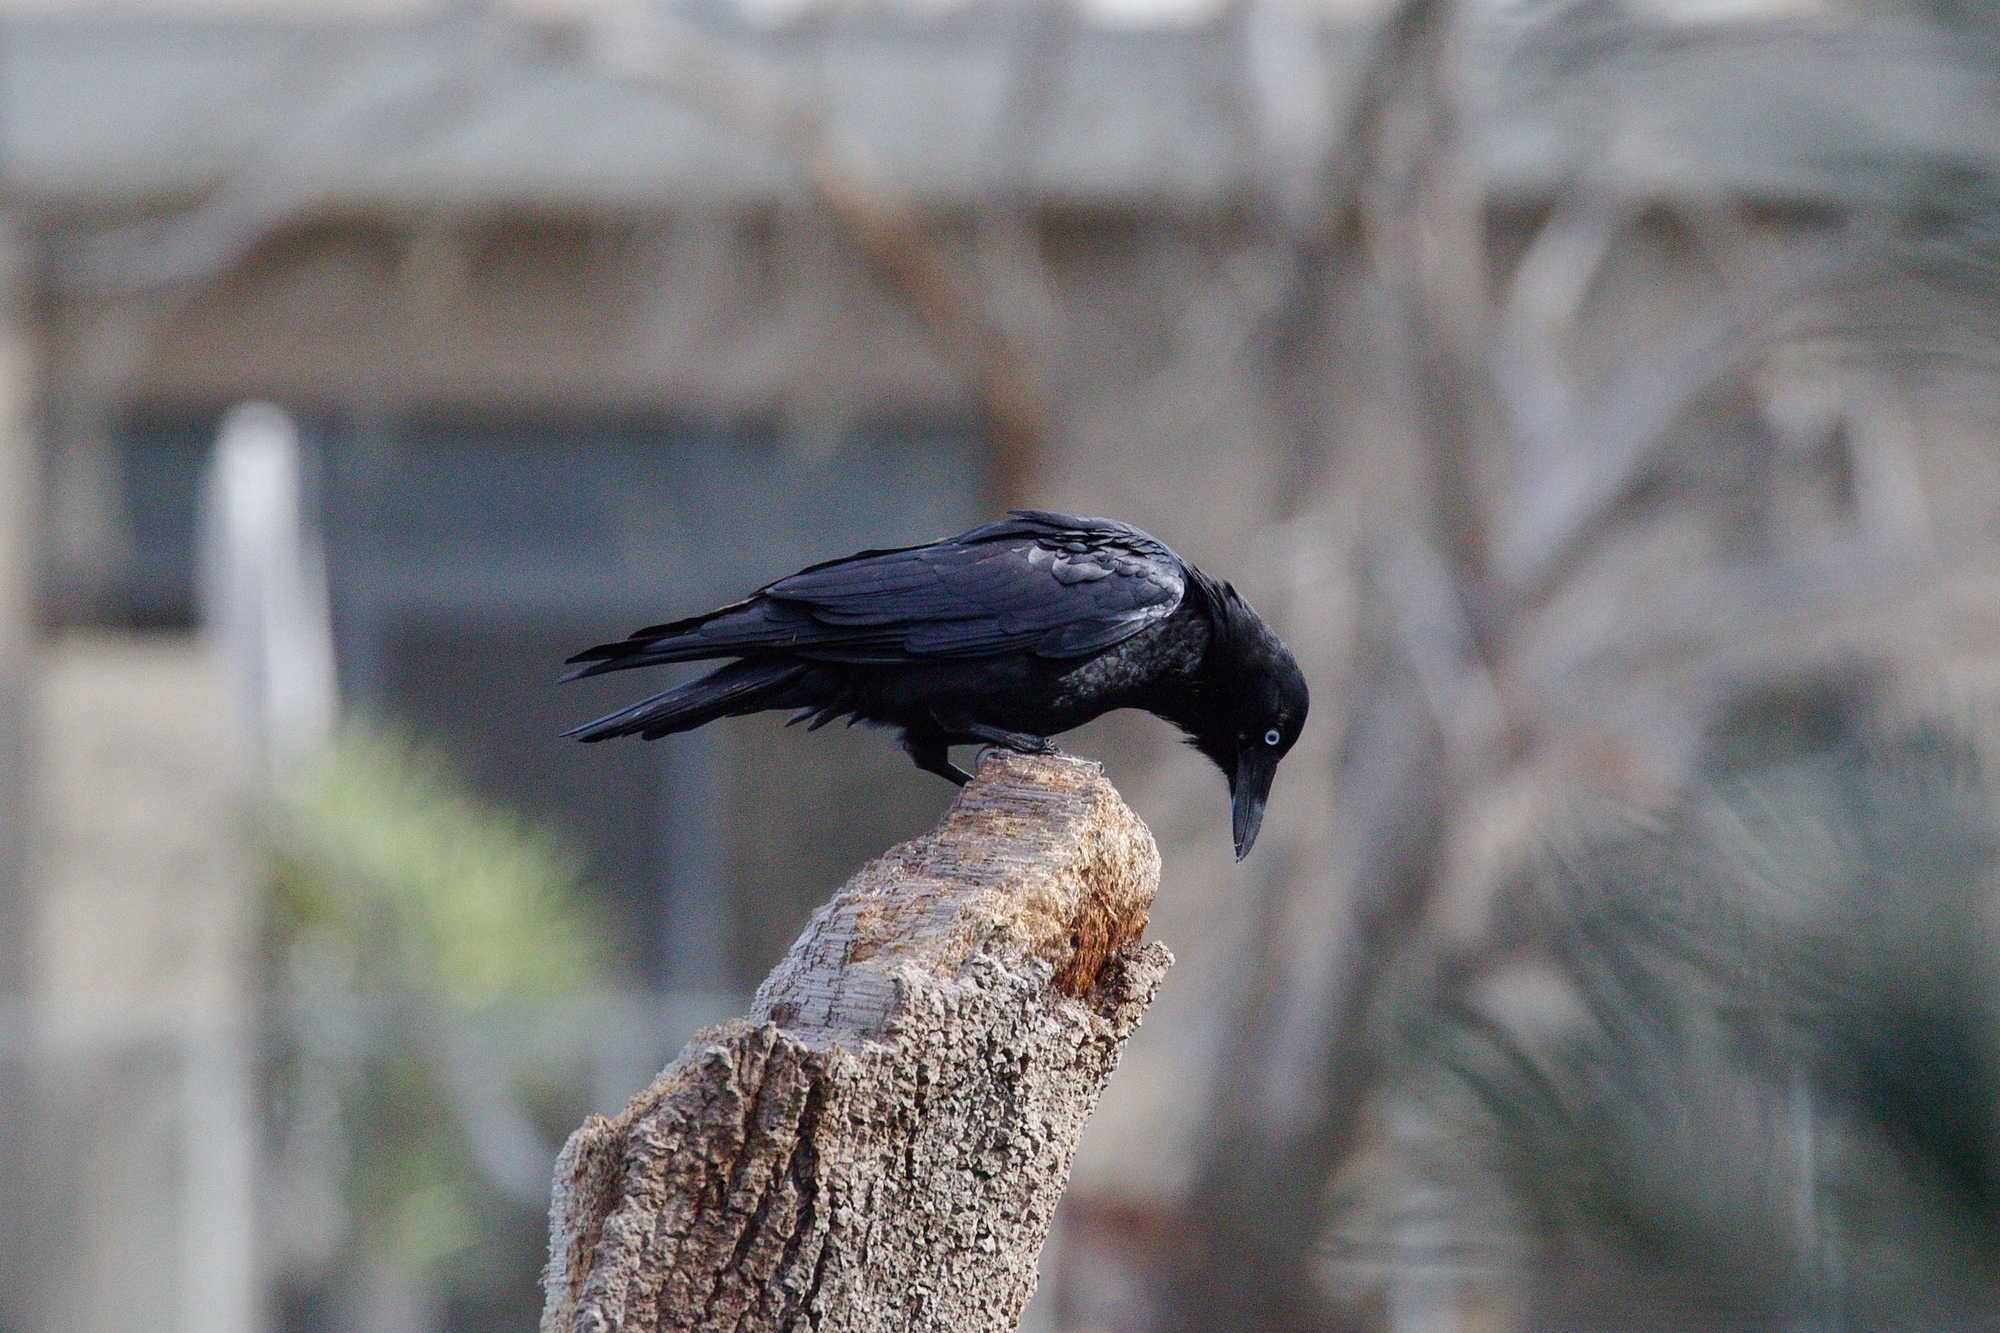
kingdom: Animalia
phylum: Chordata
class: Aves
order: Passeriformes
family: Corvidae
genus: Corvus
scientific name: Corvus mellori
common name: Little raven
